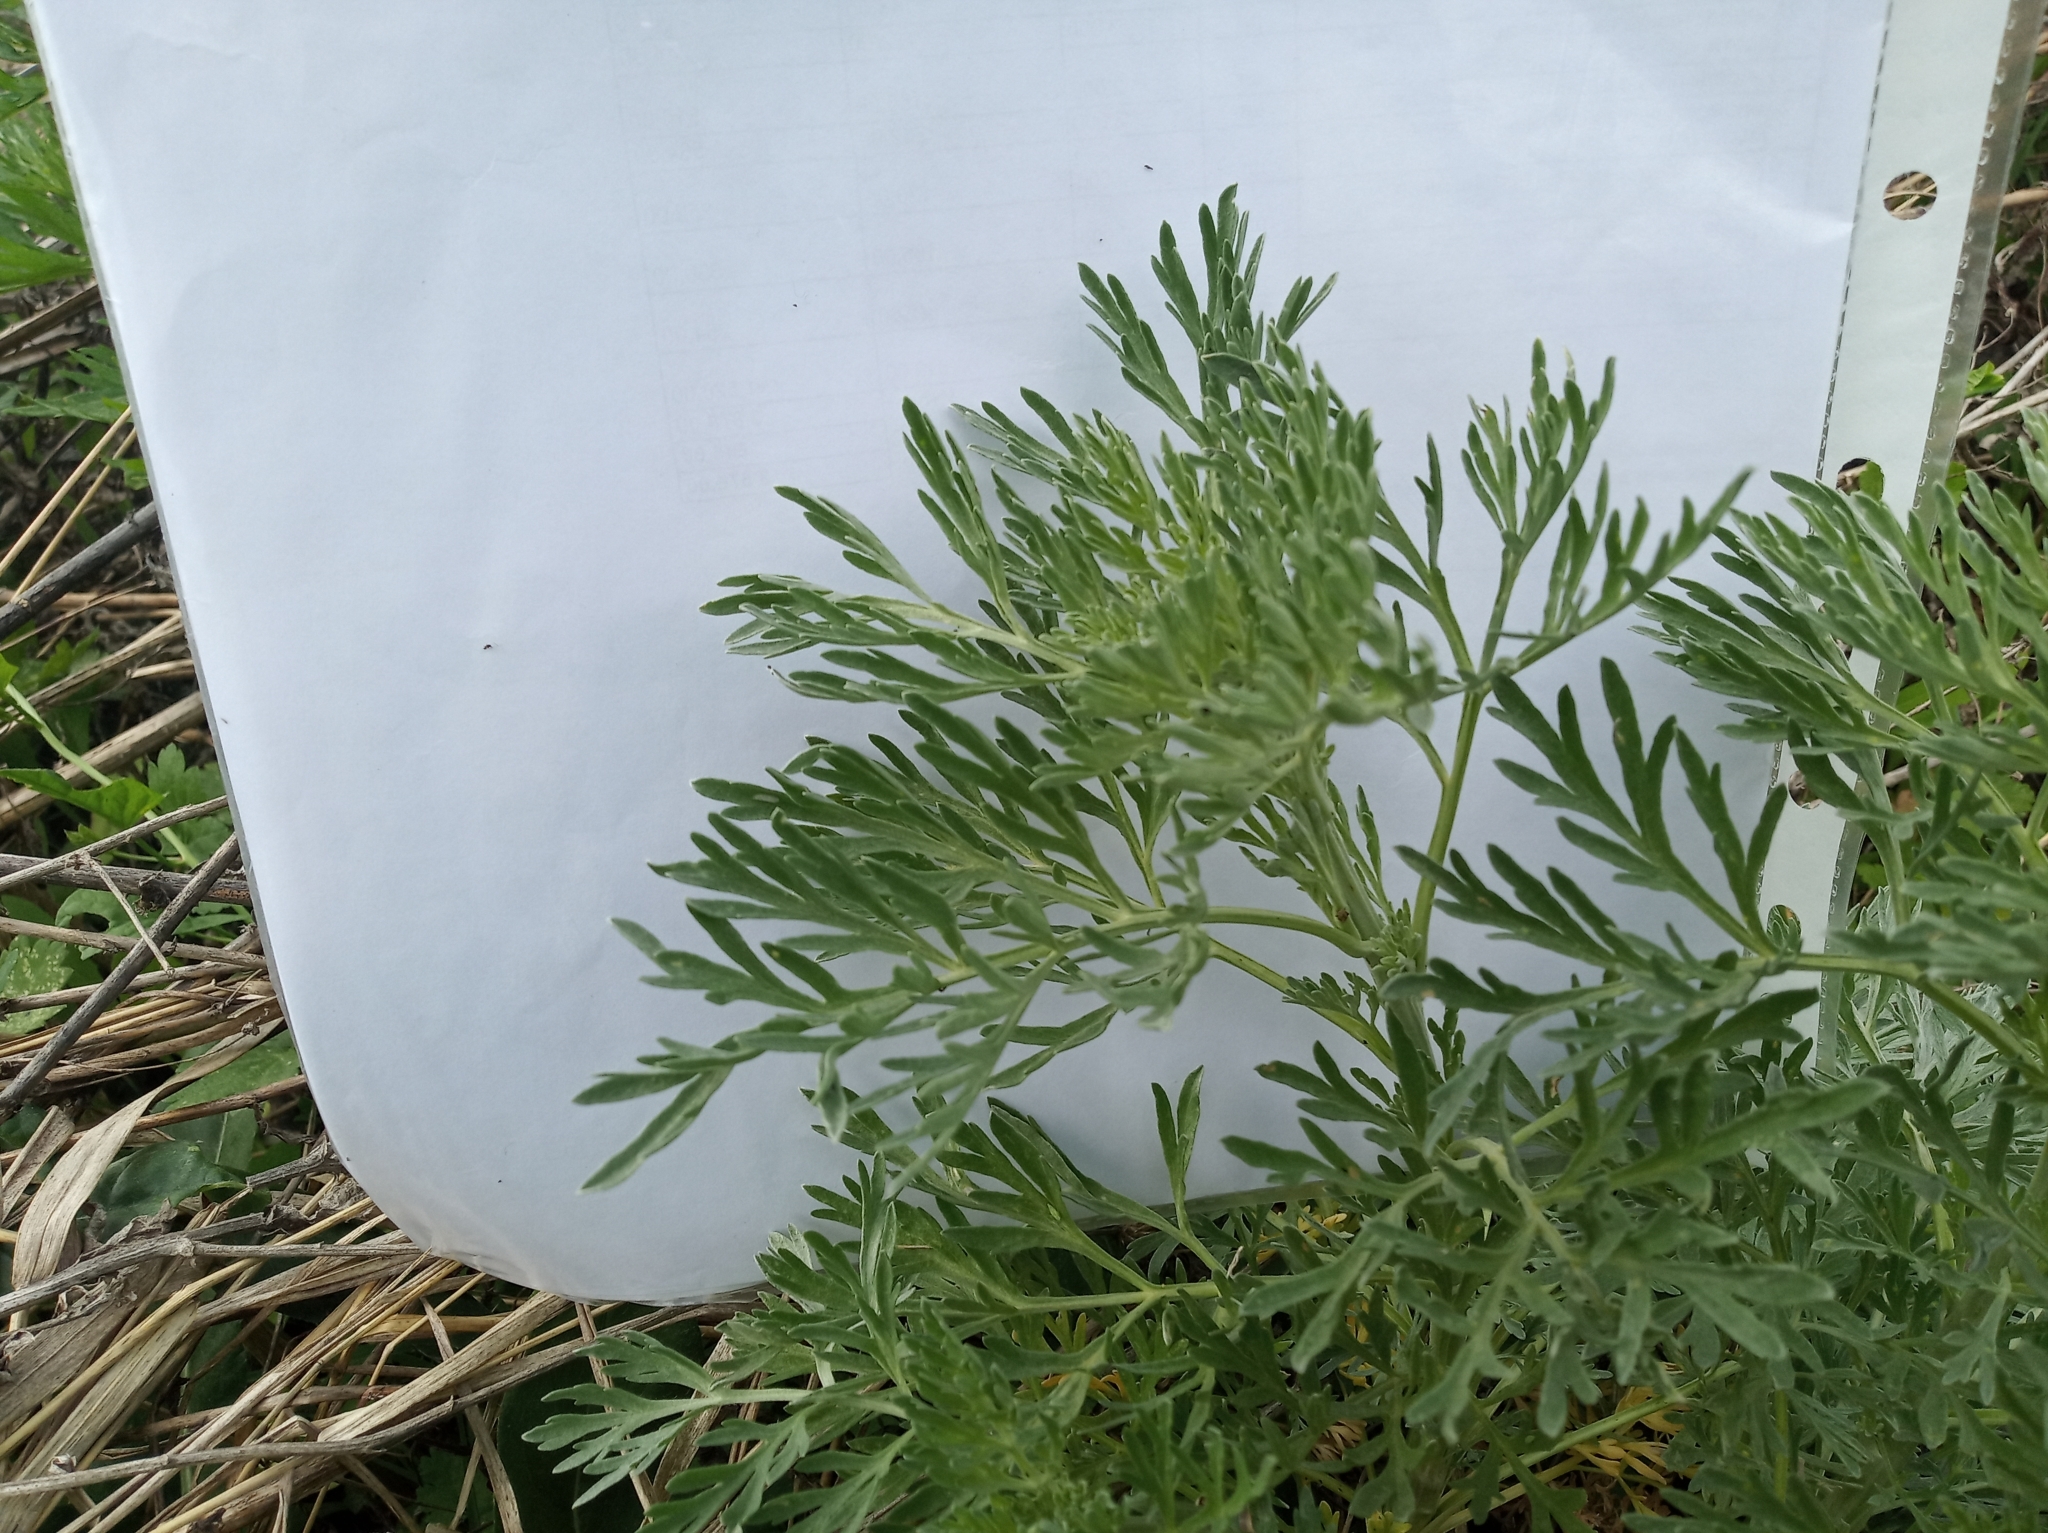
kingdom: Plantae
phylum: Tracheophyta
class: Magnoliopsida
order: Asterales
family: Asteraceae
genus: Artemisia
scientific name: Artemisia absinthium
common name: Wormwood
